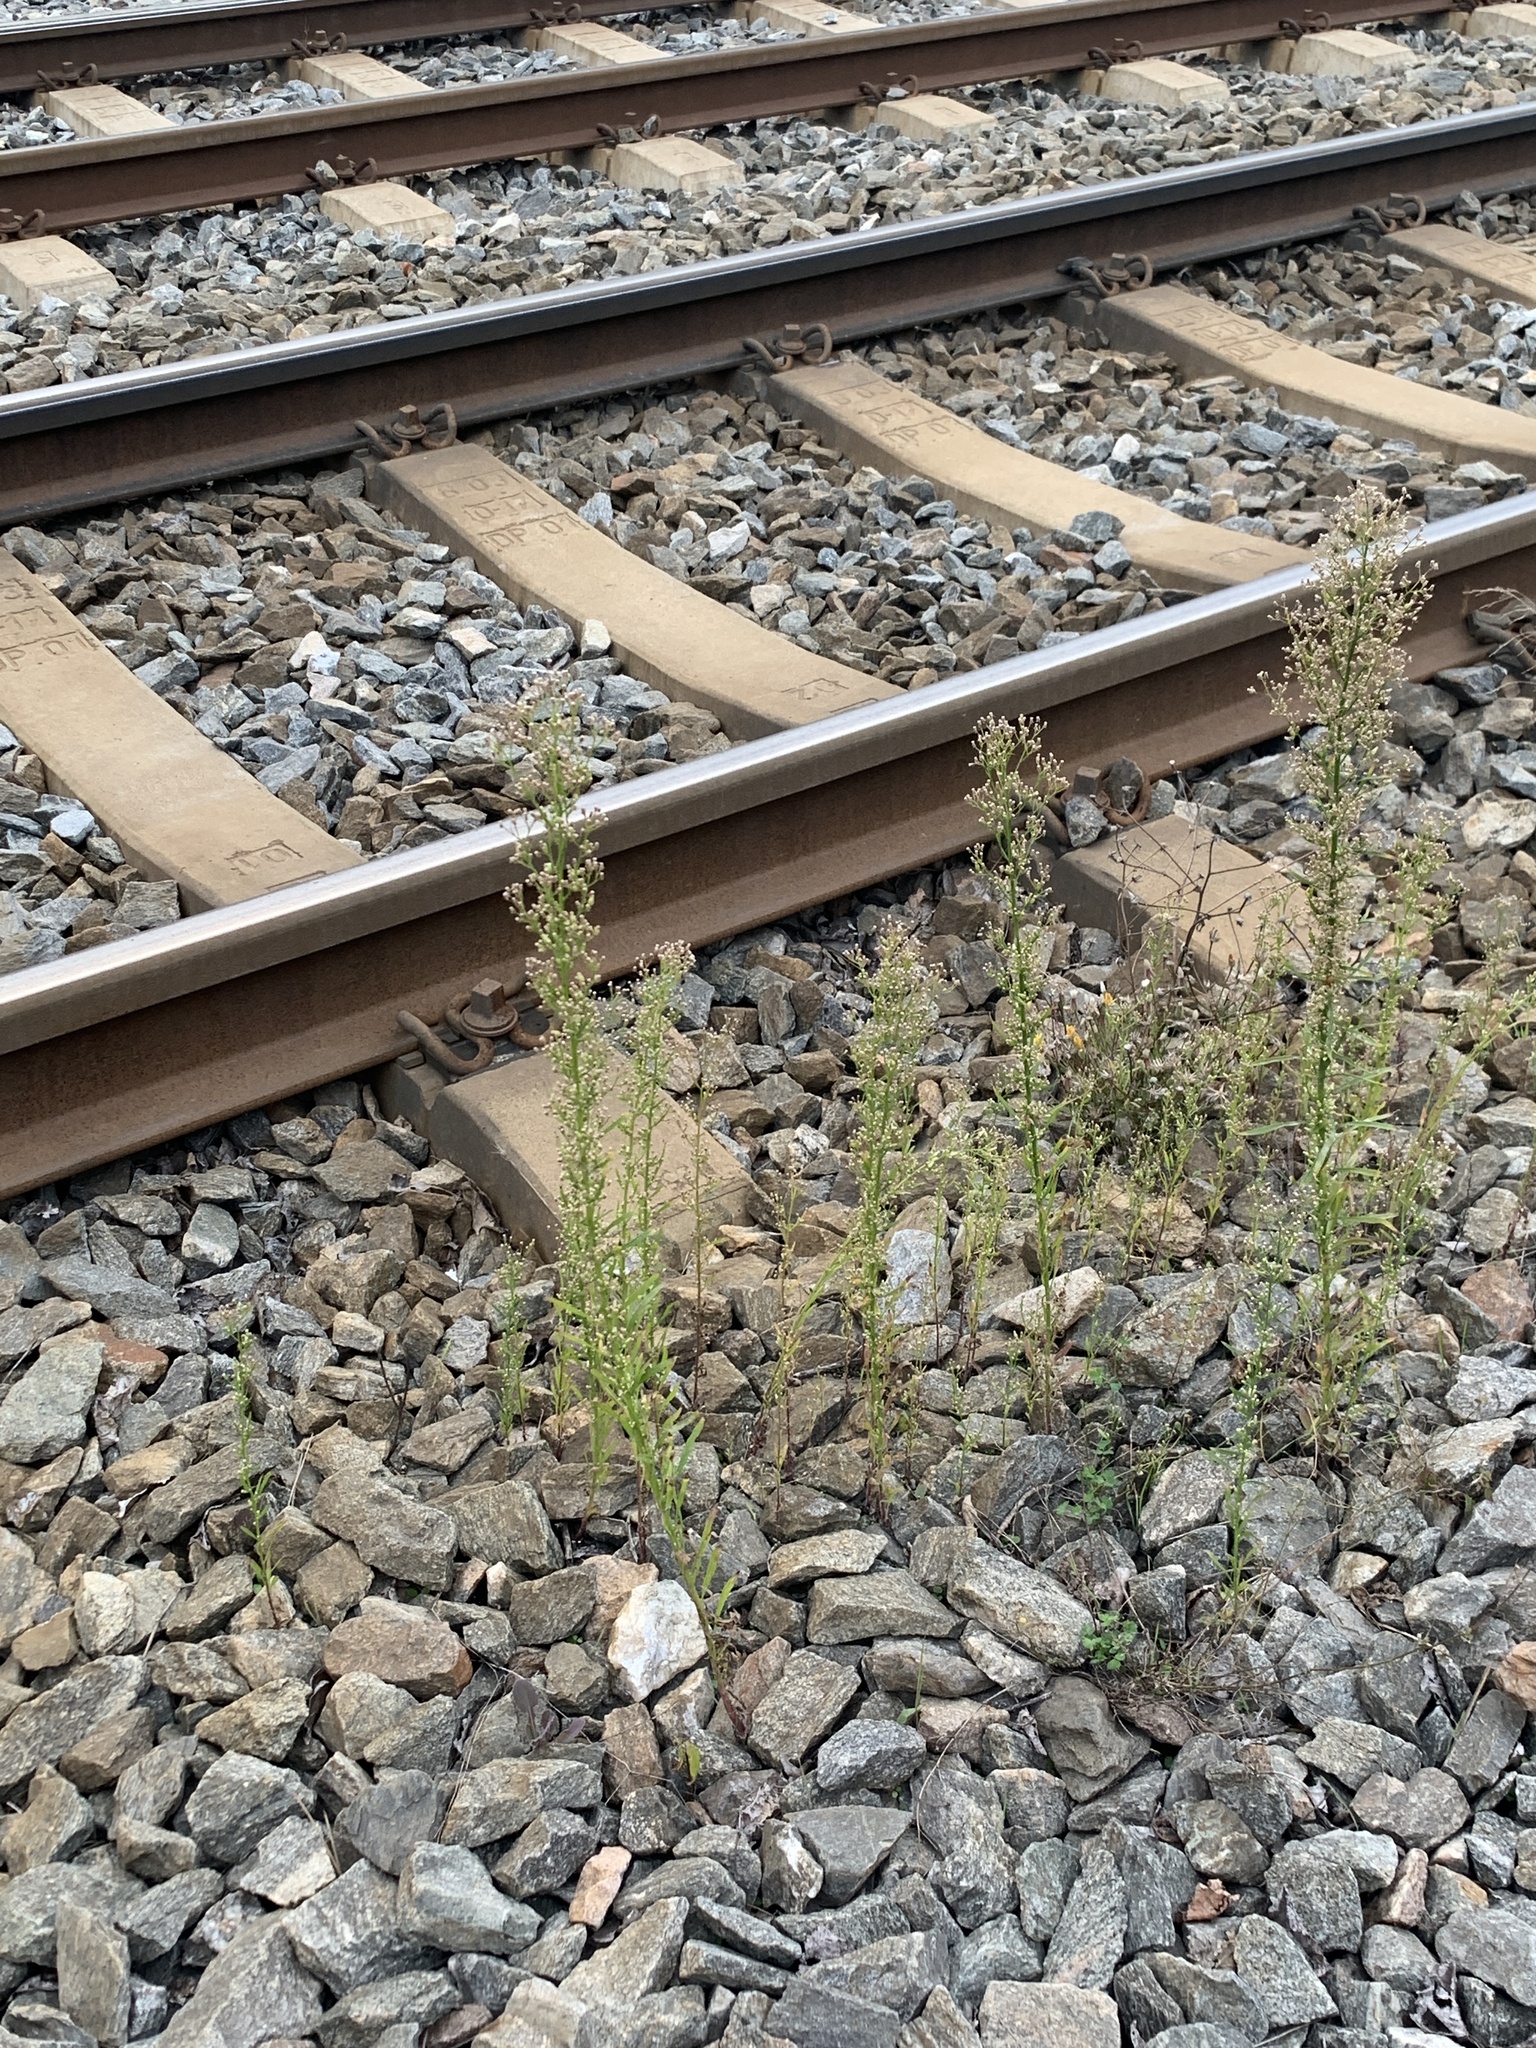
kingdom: Plantae
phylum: Tracheophyta
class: Magnoliopsida
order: Asterales
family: Asteraceae
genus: Erigeron
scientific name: Erigeron canadensis
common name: Canadian fleabane
